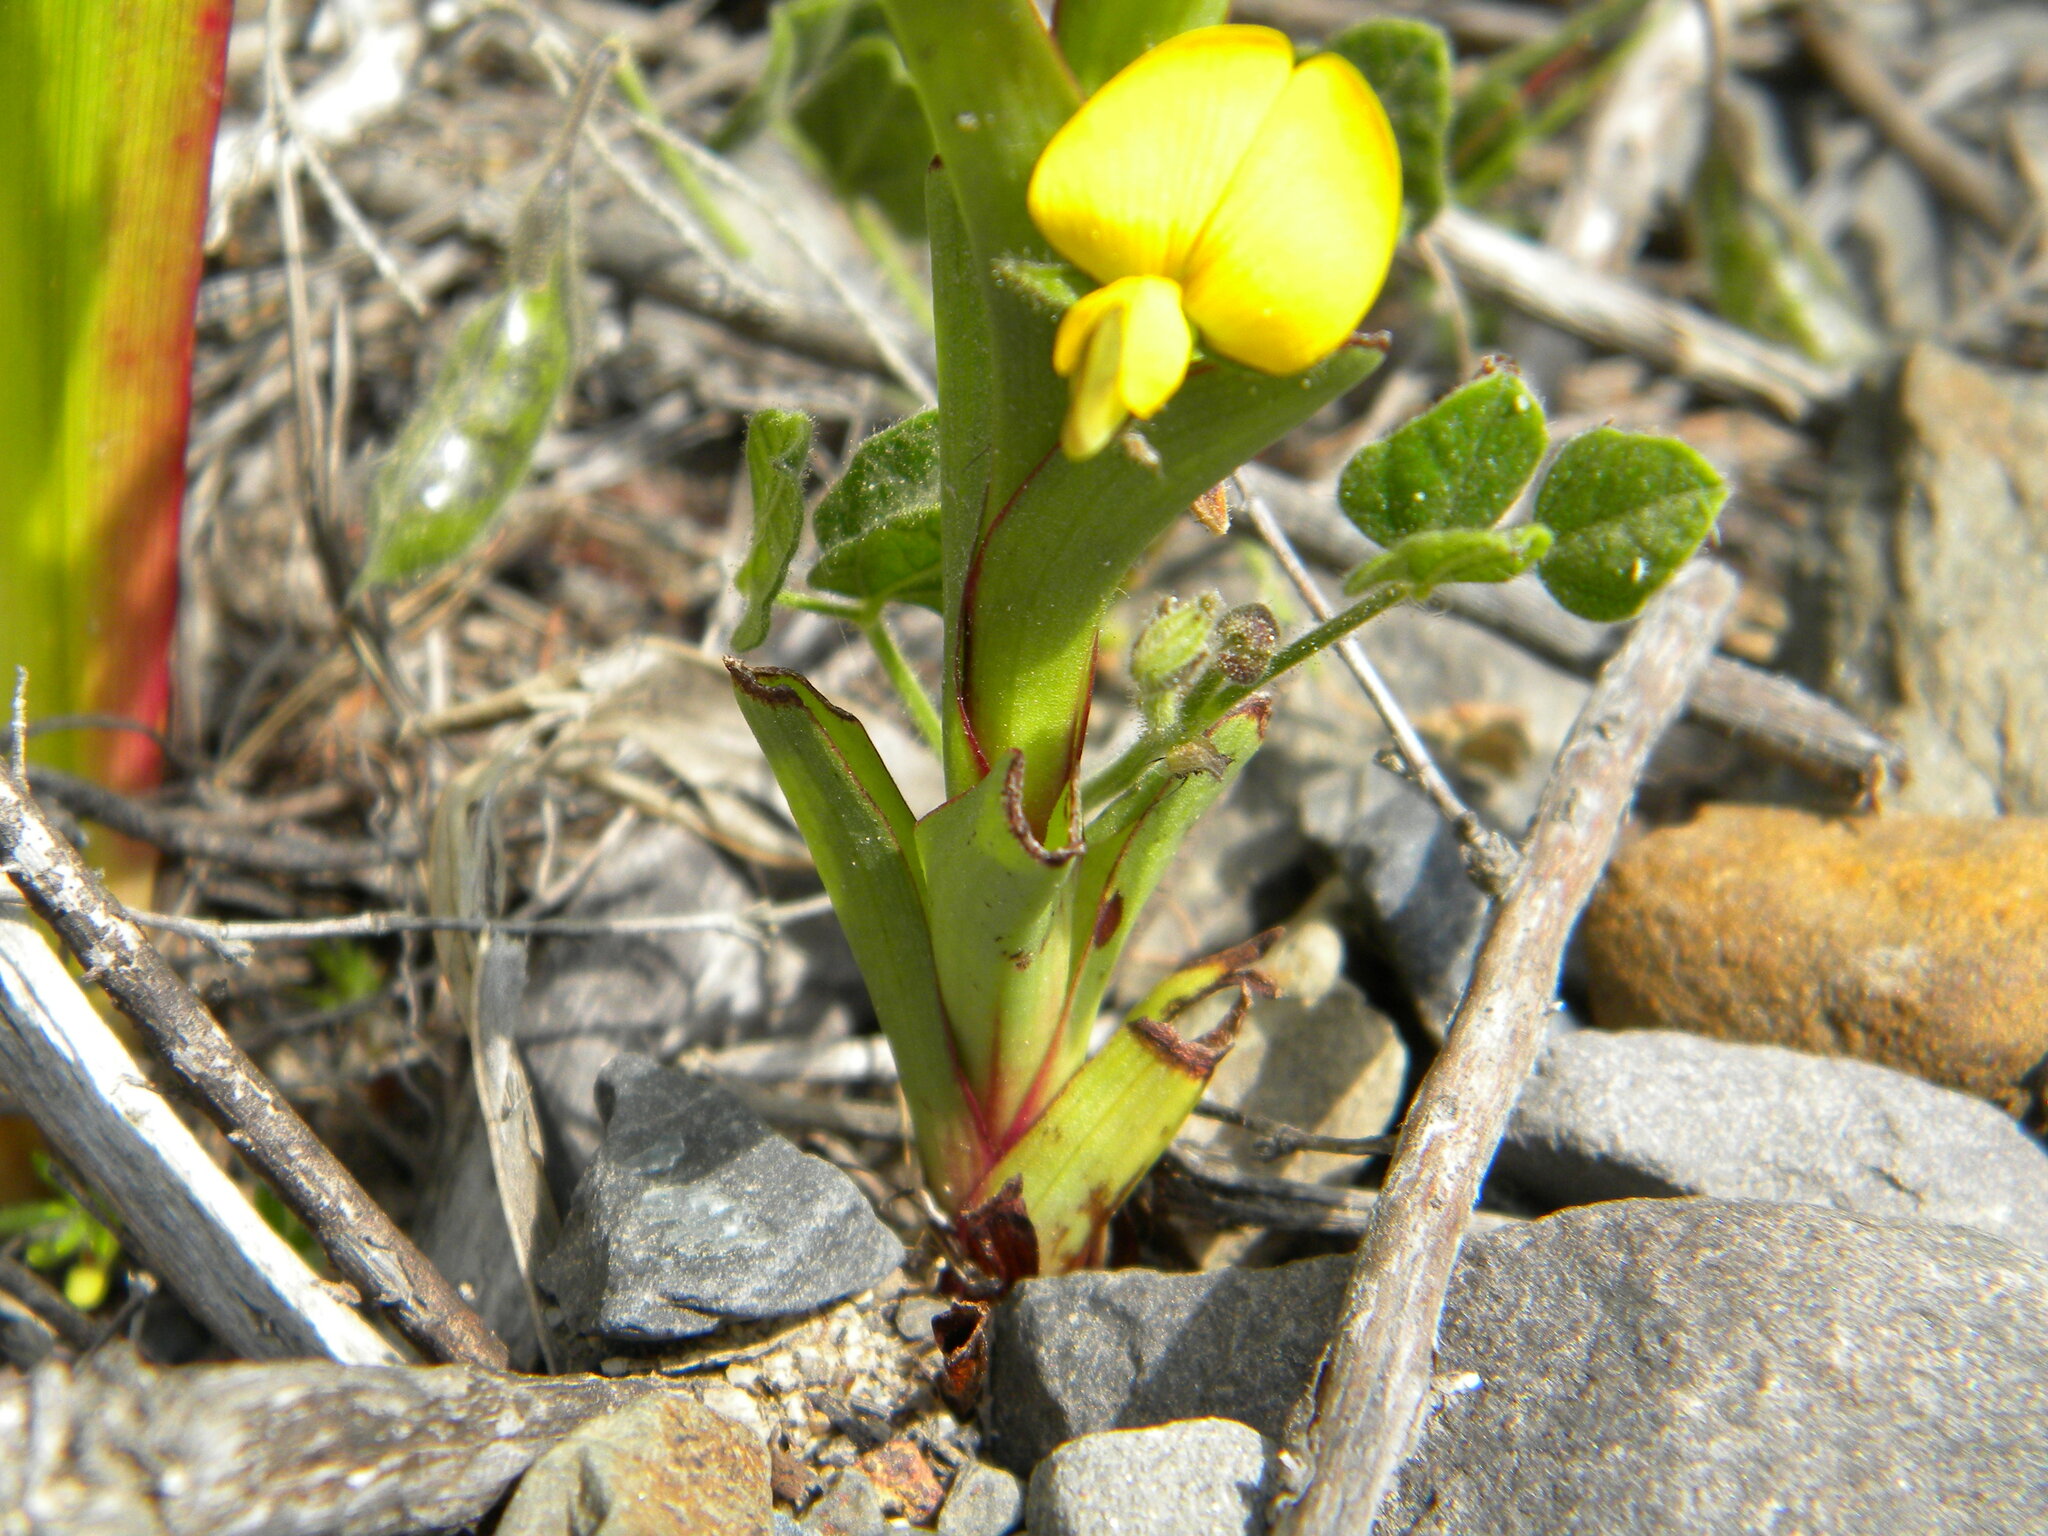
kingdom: Plantae
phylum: Tracheophyta
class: Liliopsida
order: Asparagales
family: Orchidaceae
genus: Disa
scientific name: Disa bracteata
